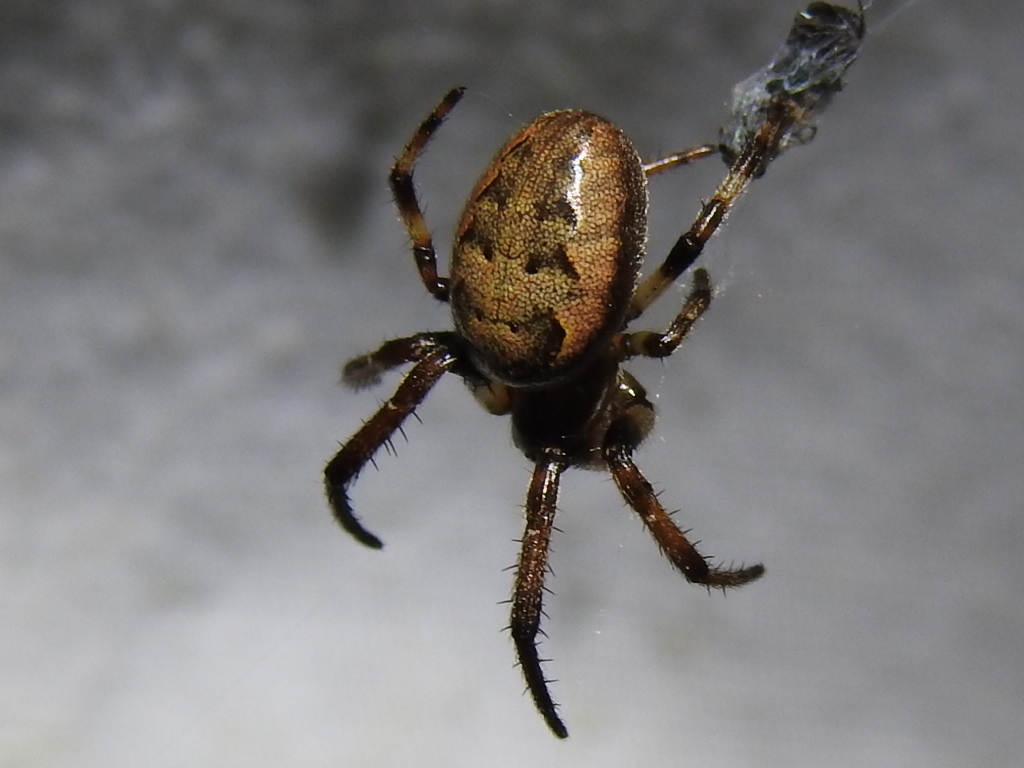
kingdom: Animalia
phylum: Arthropoda
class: Arachnida
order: Araneae
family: Araneidae
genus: Larinioides
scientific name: Larinioides cornutus
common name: Furrow orbweaver
